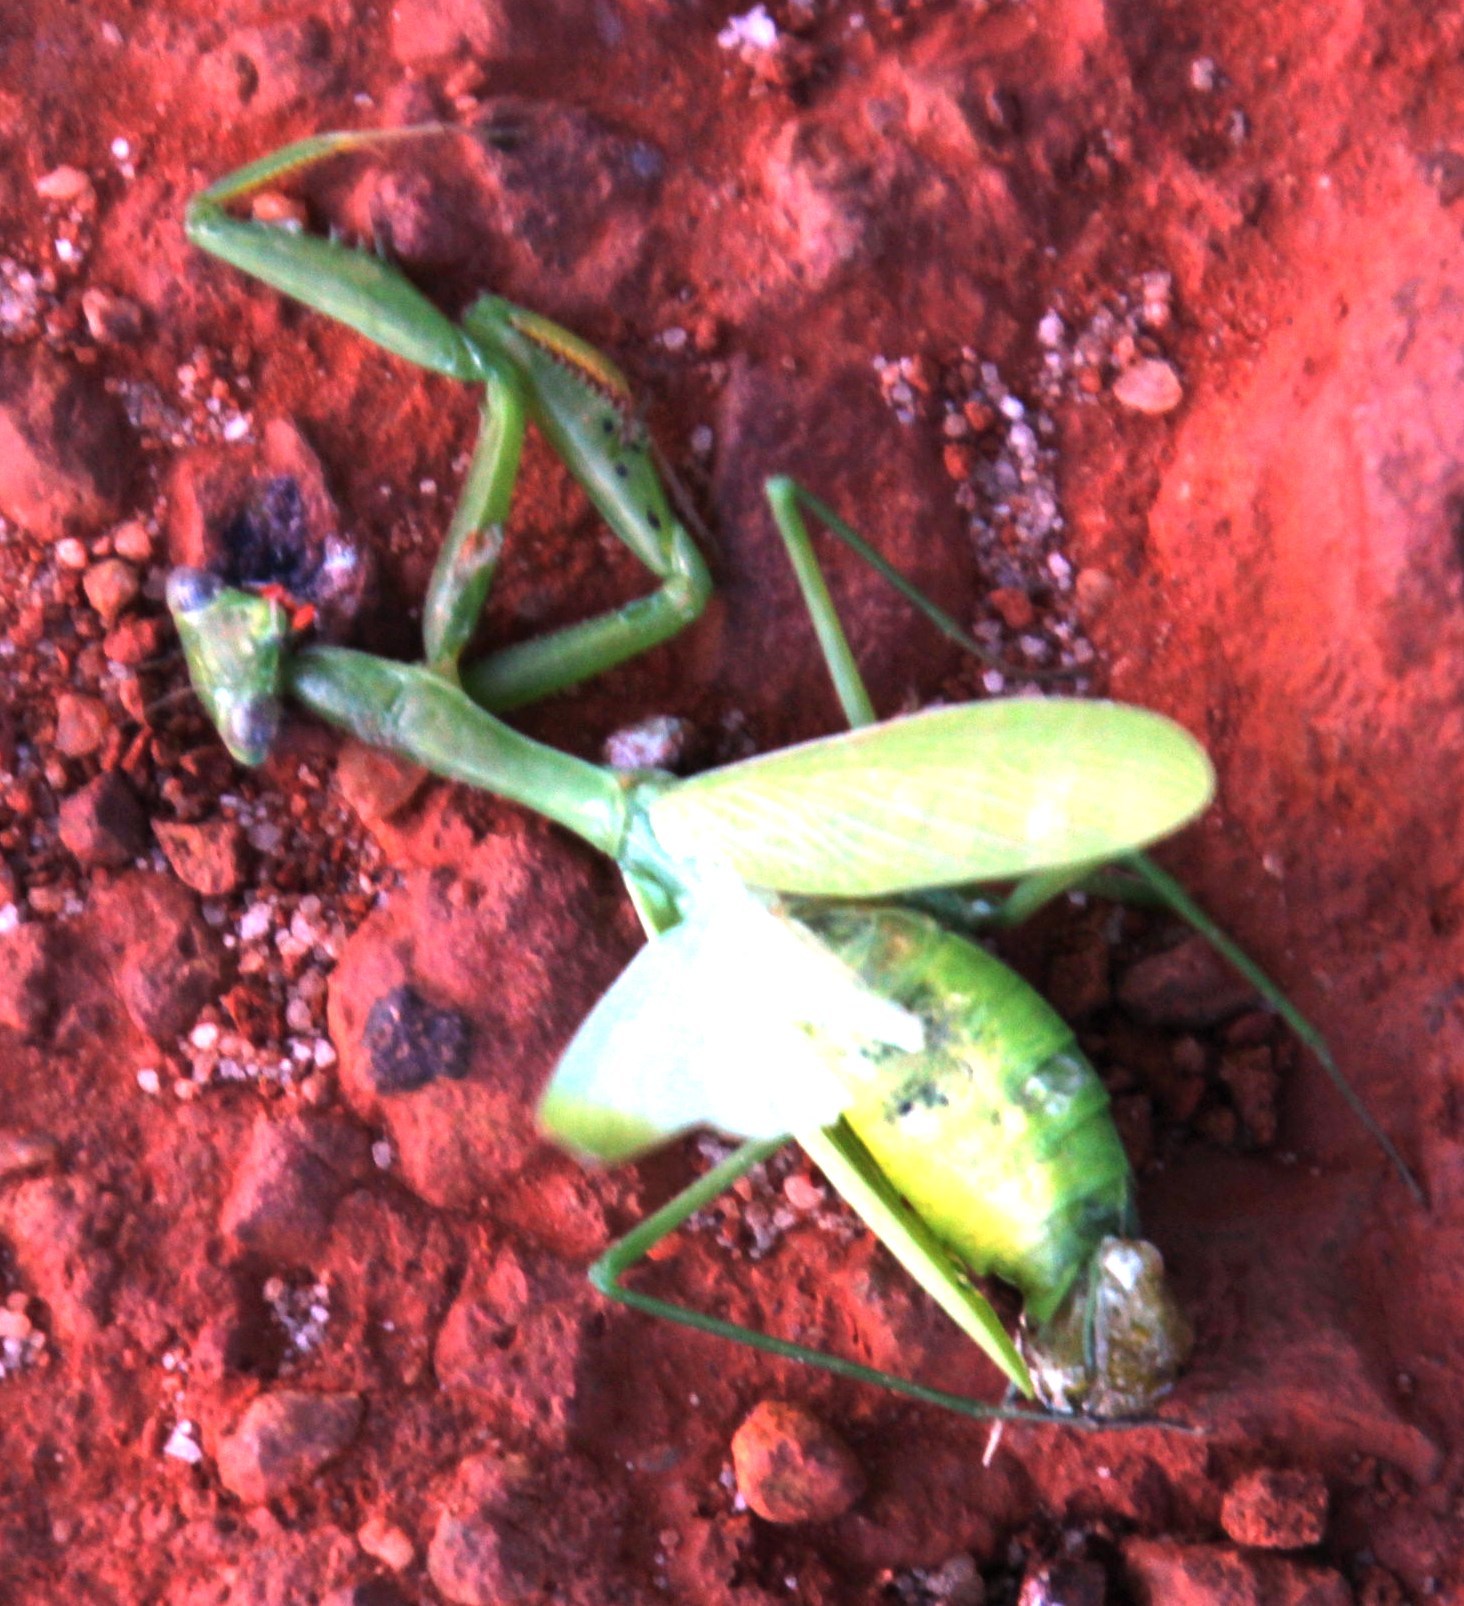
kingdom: Animalia
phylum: Arthropoda
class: Insecta
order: Mantodea
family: Miomantidae
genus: Miomantis
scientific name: Miomantis caffra
